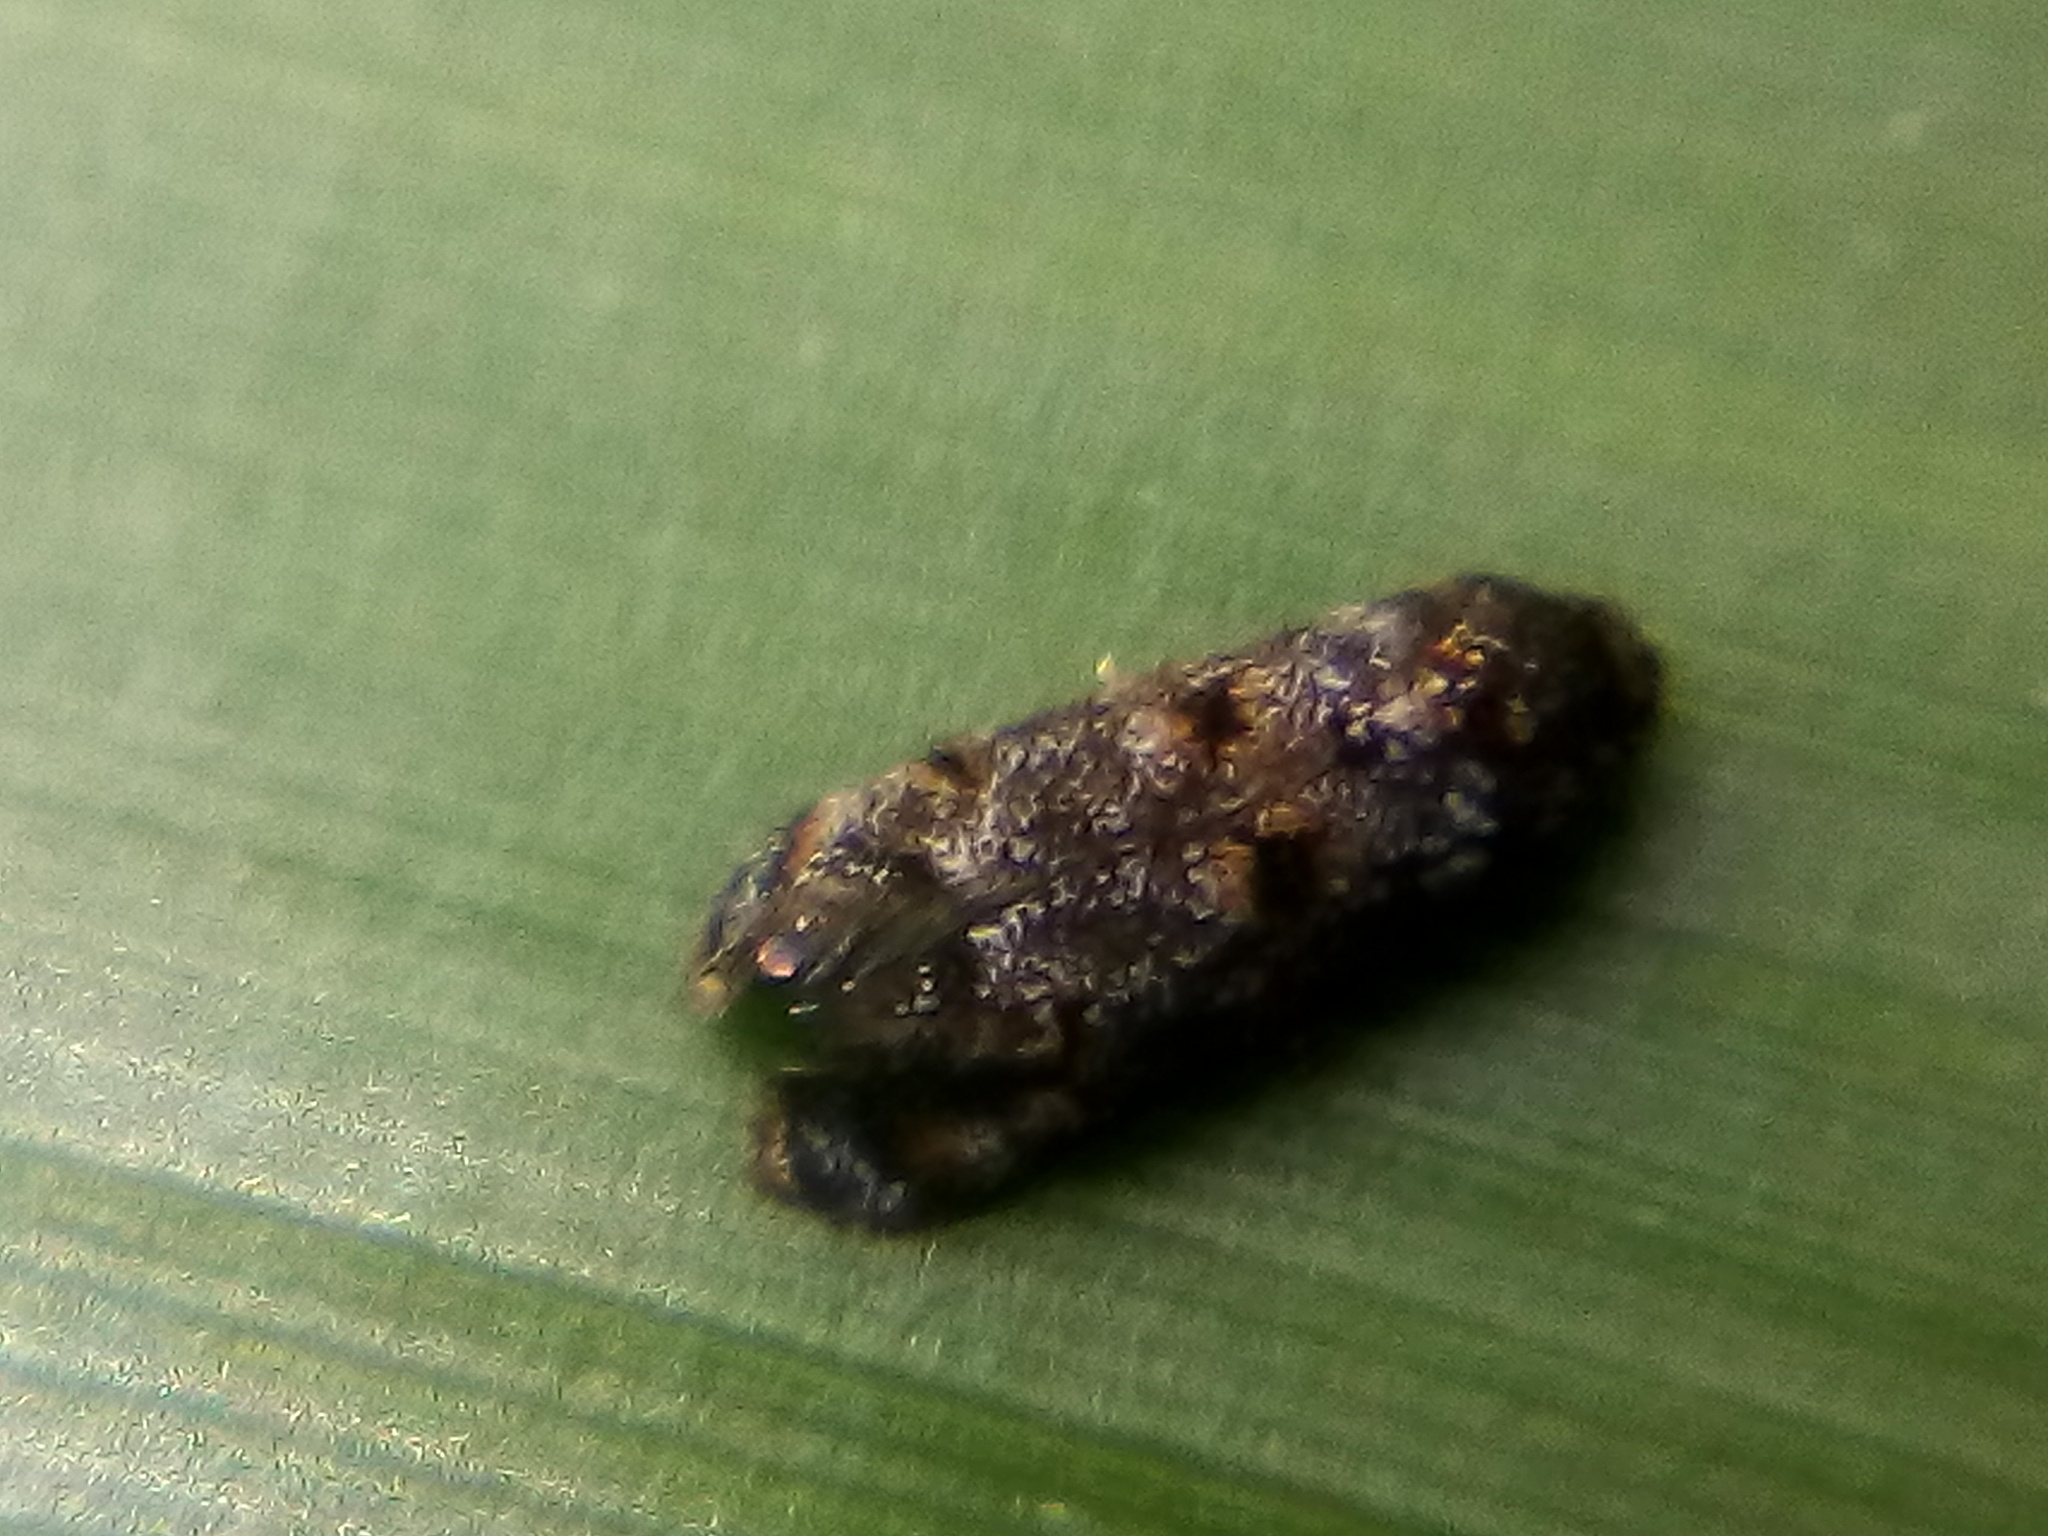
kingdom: Animalia
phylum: Arthropoda
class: Insecta
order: Lepidoptera
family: Oecophoridae
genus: Corocosma
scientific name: Corocosma memorabilis
